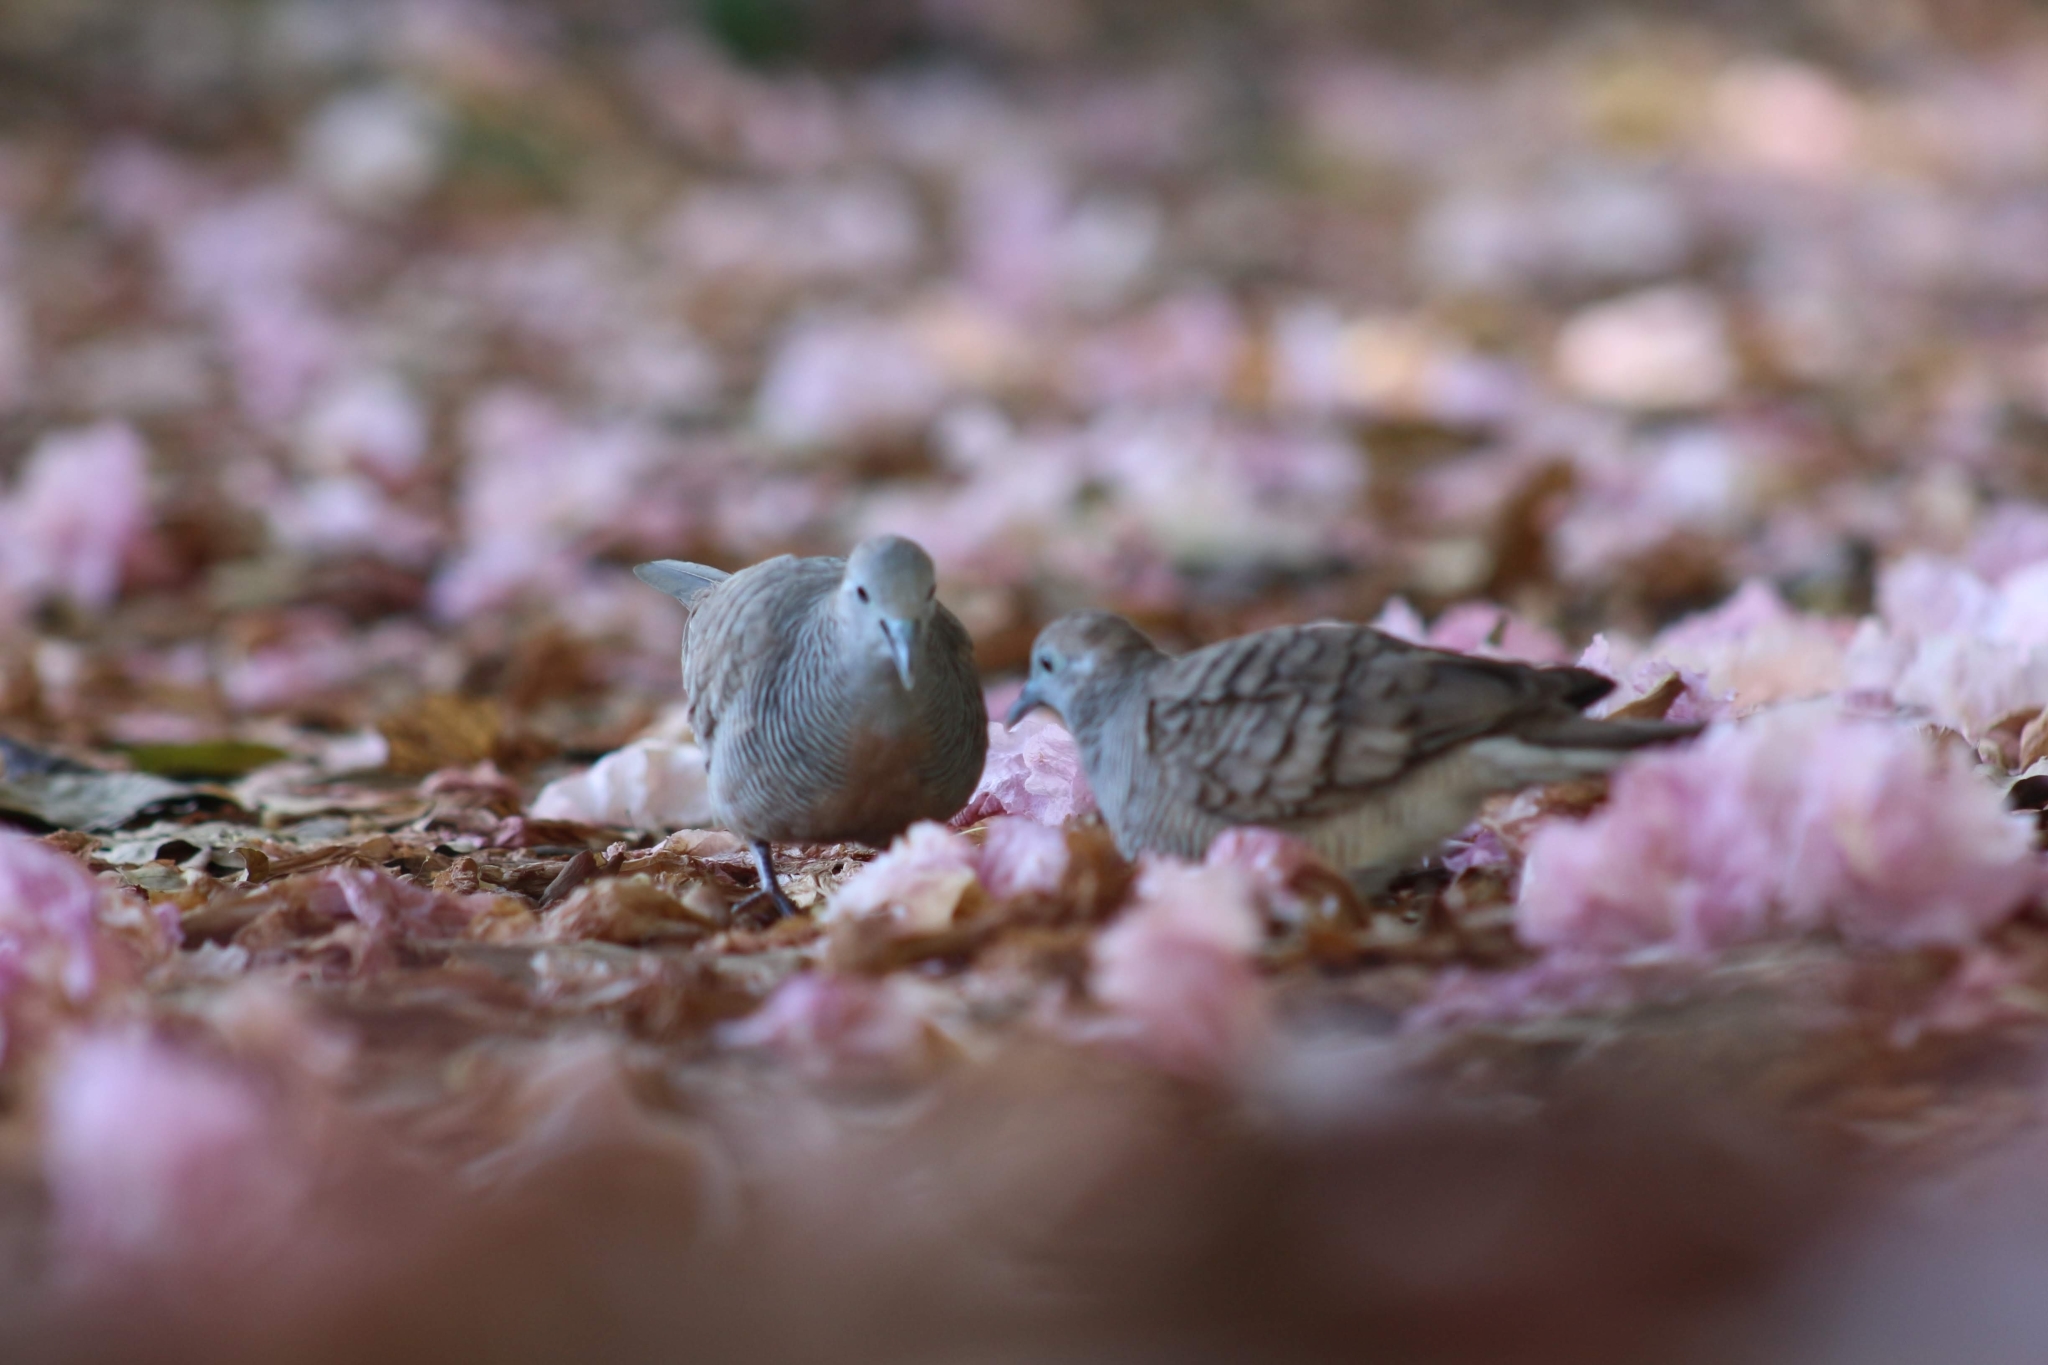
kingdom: Animalia
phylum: Chordata
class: Aves
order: Columbiformes
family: Columbidae
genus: Geopelia
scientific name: Geopelia striata
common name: Zebra dove
